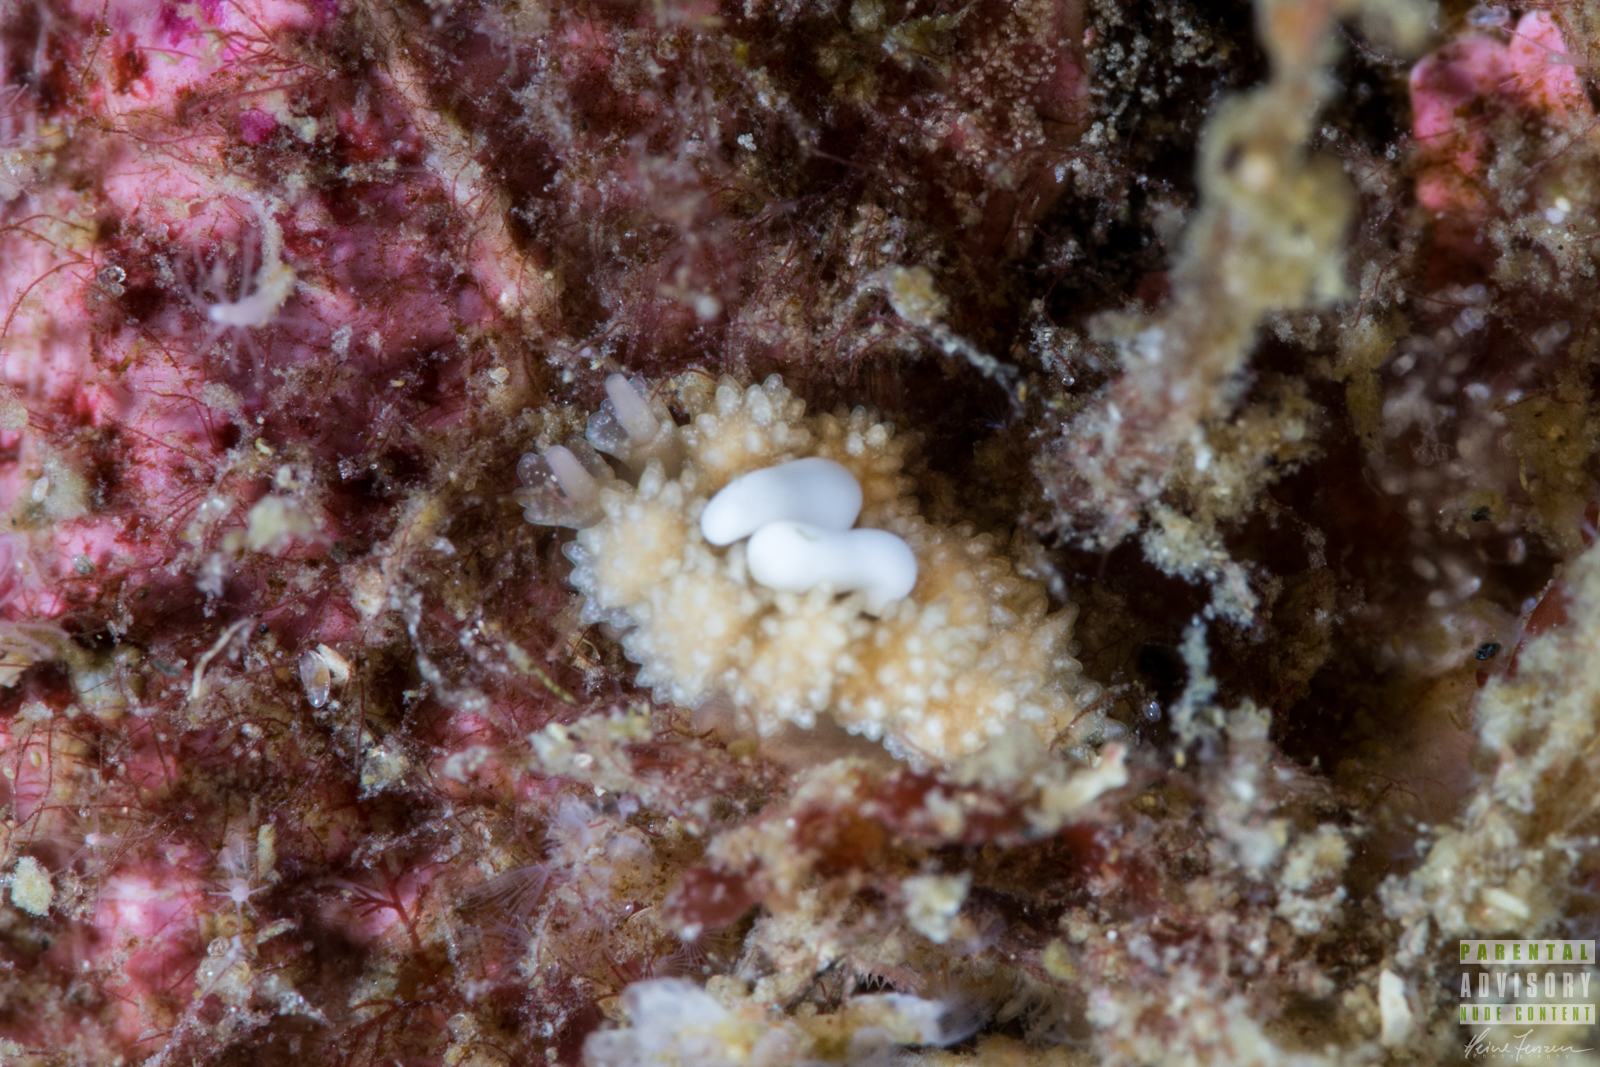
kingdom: Animalia
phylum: Mollusca
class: Gastropoda
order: Nudibranchia
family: Dotidae
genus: Doto
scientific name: Doto fragilis
